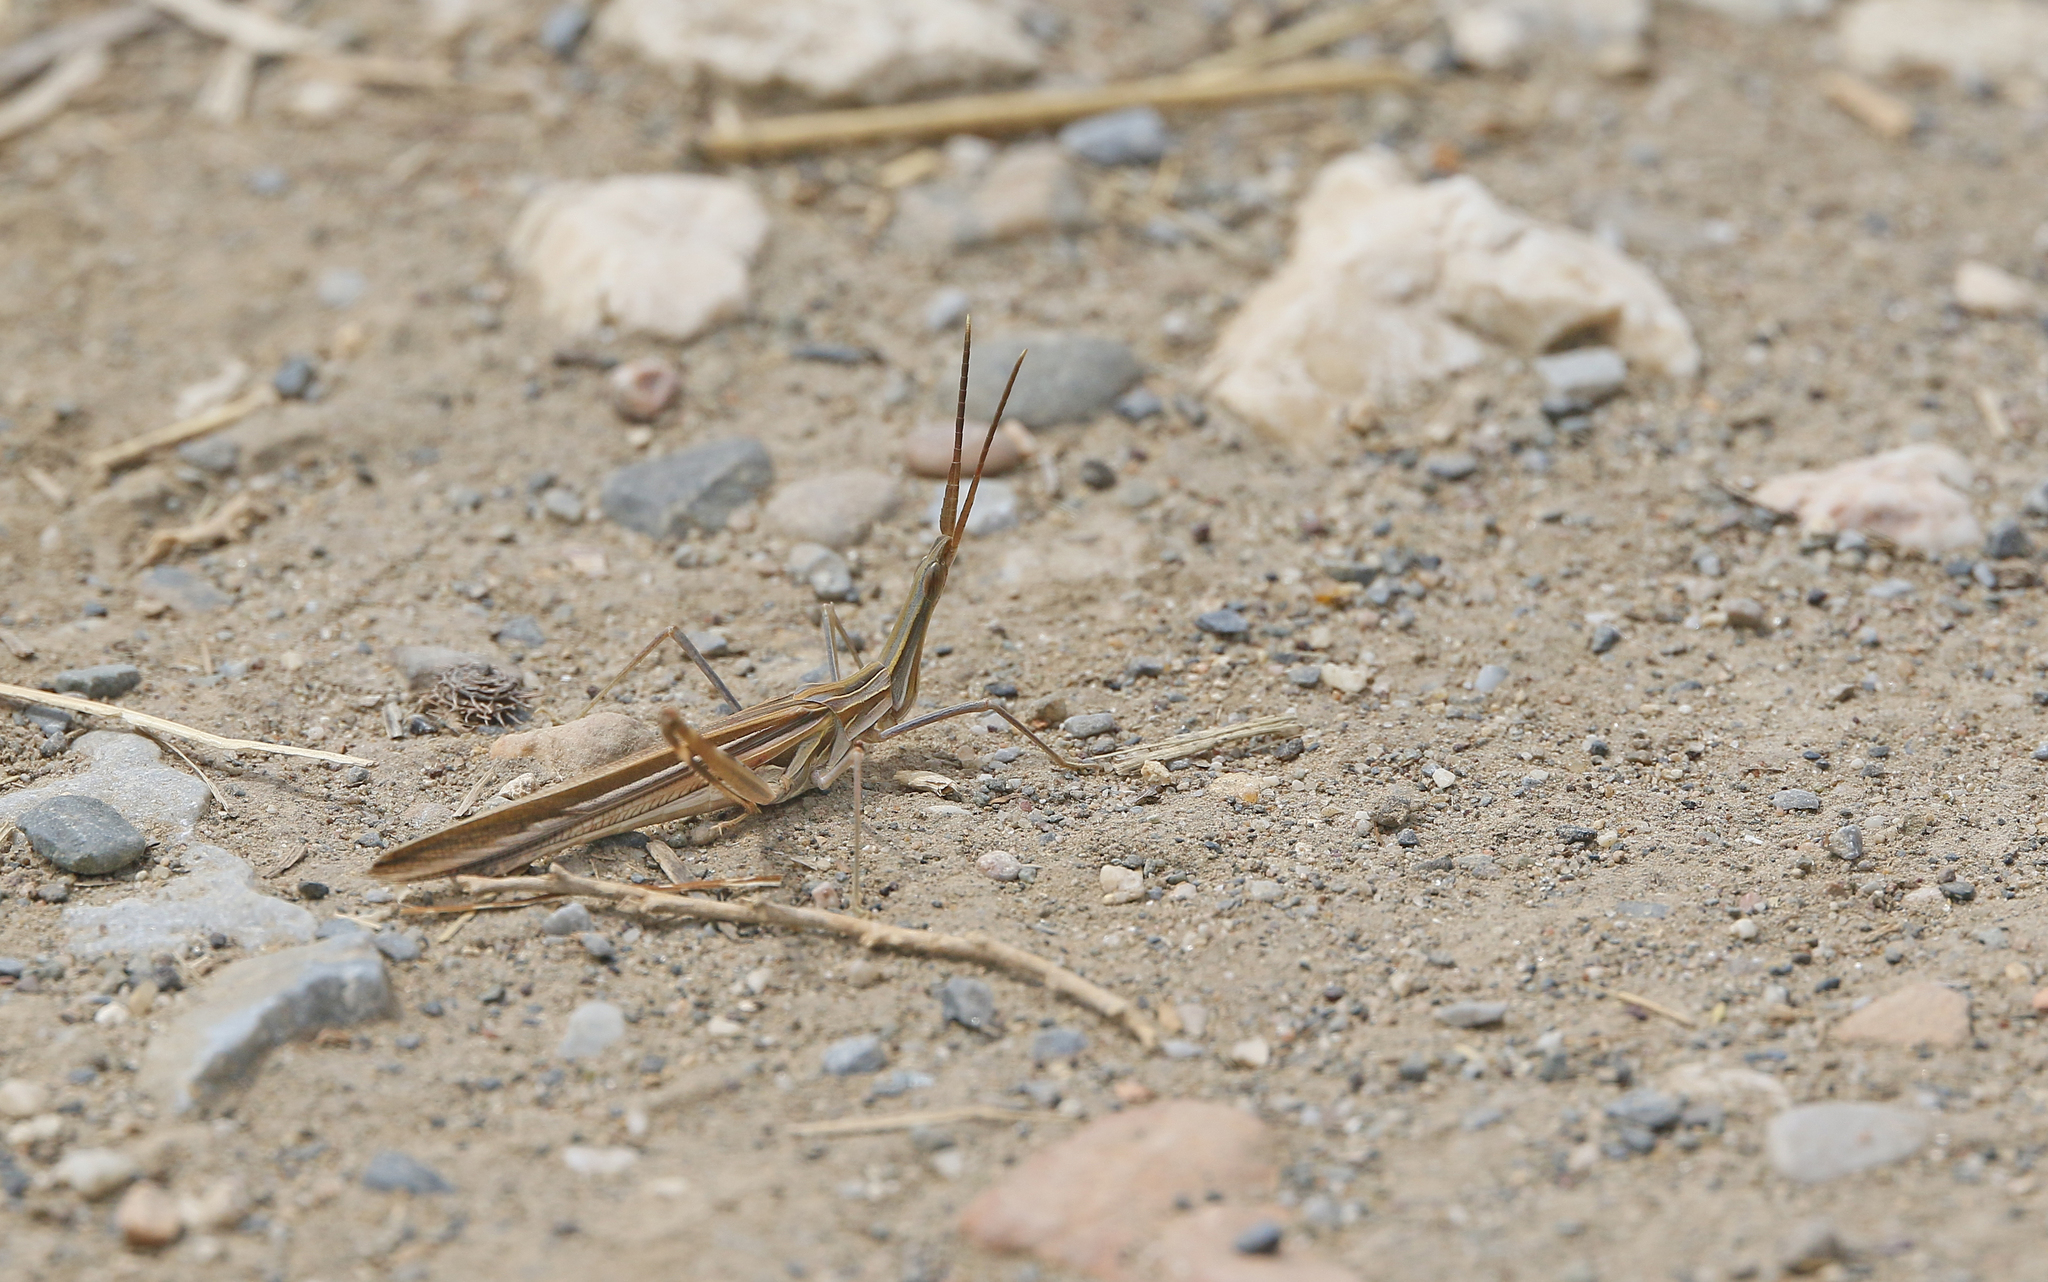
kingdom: Animalia
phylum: Arthropoda
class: Insecta
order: Orthoptera
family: Acrididae
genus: Truxalis
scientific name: Truxalis nasuta
